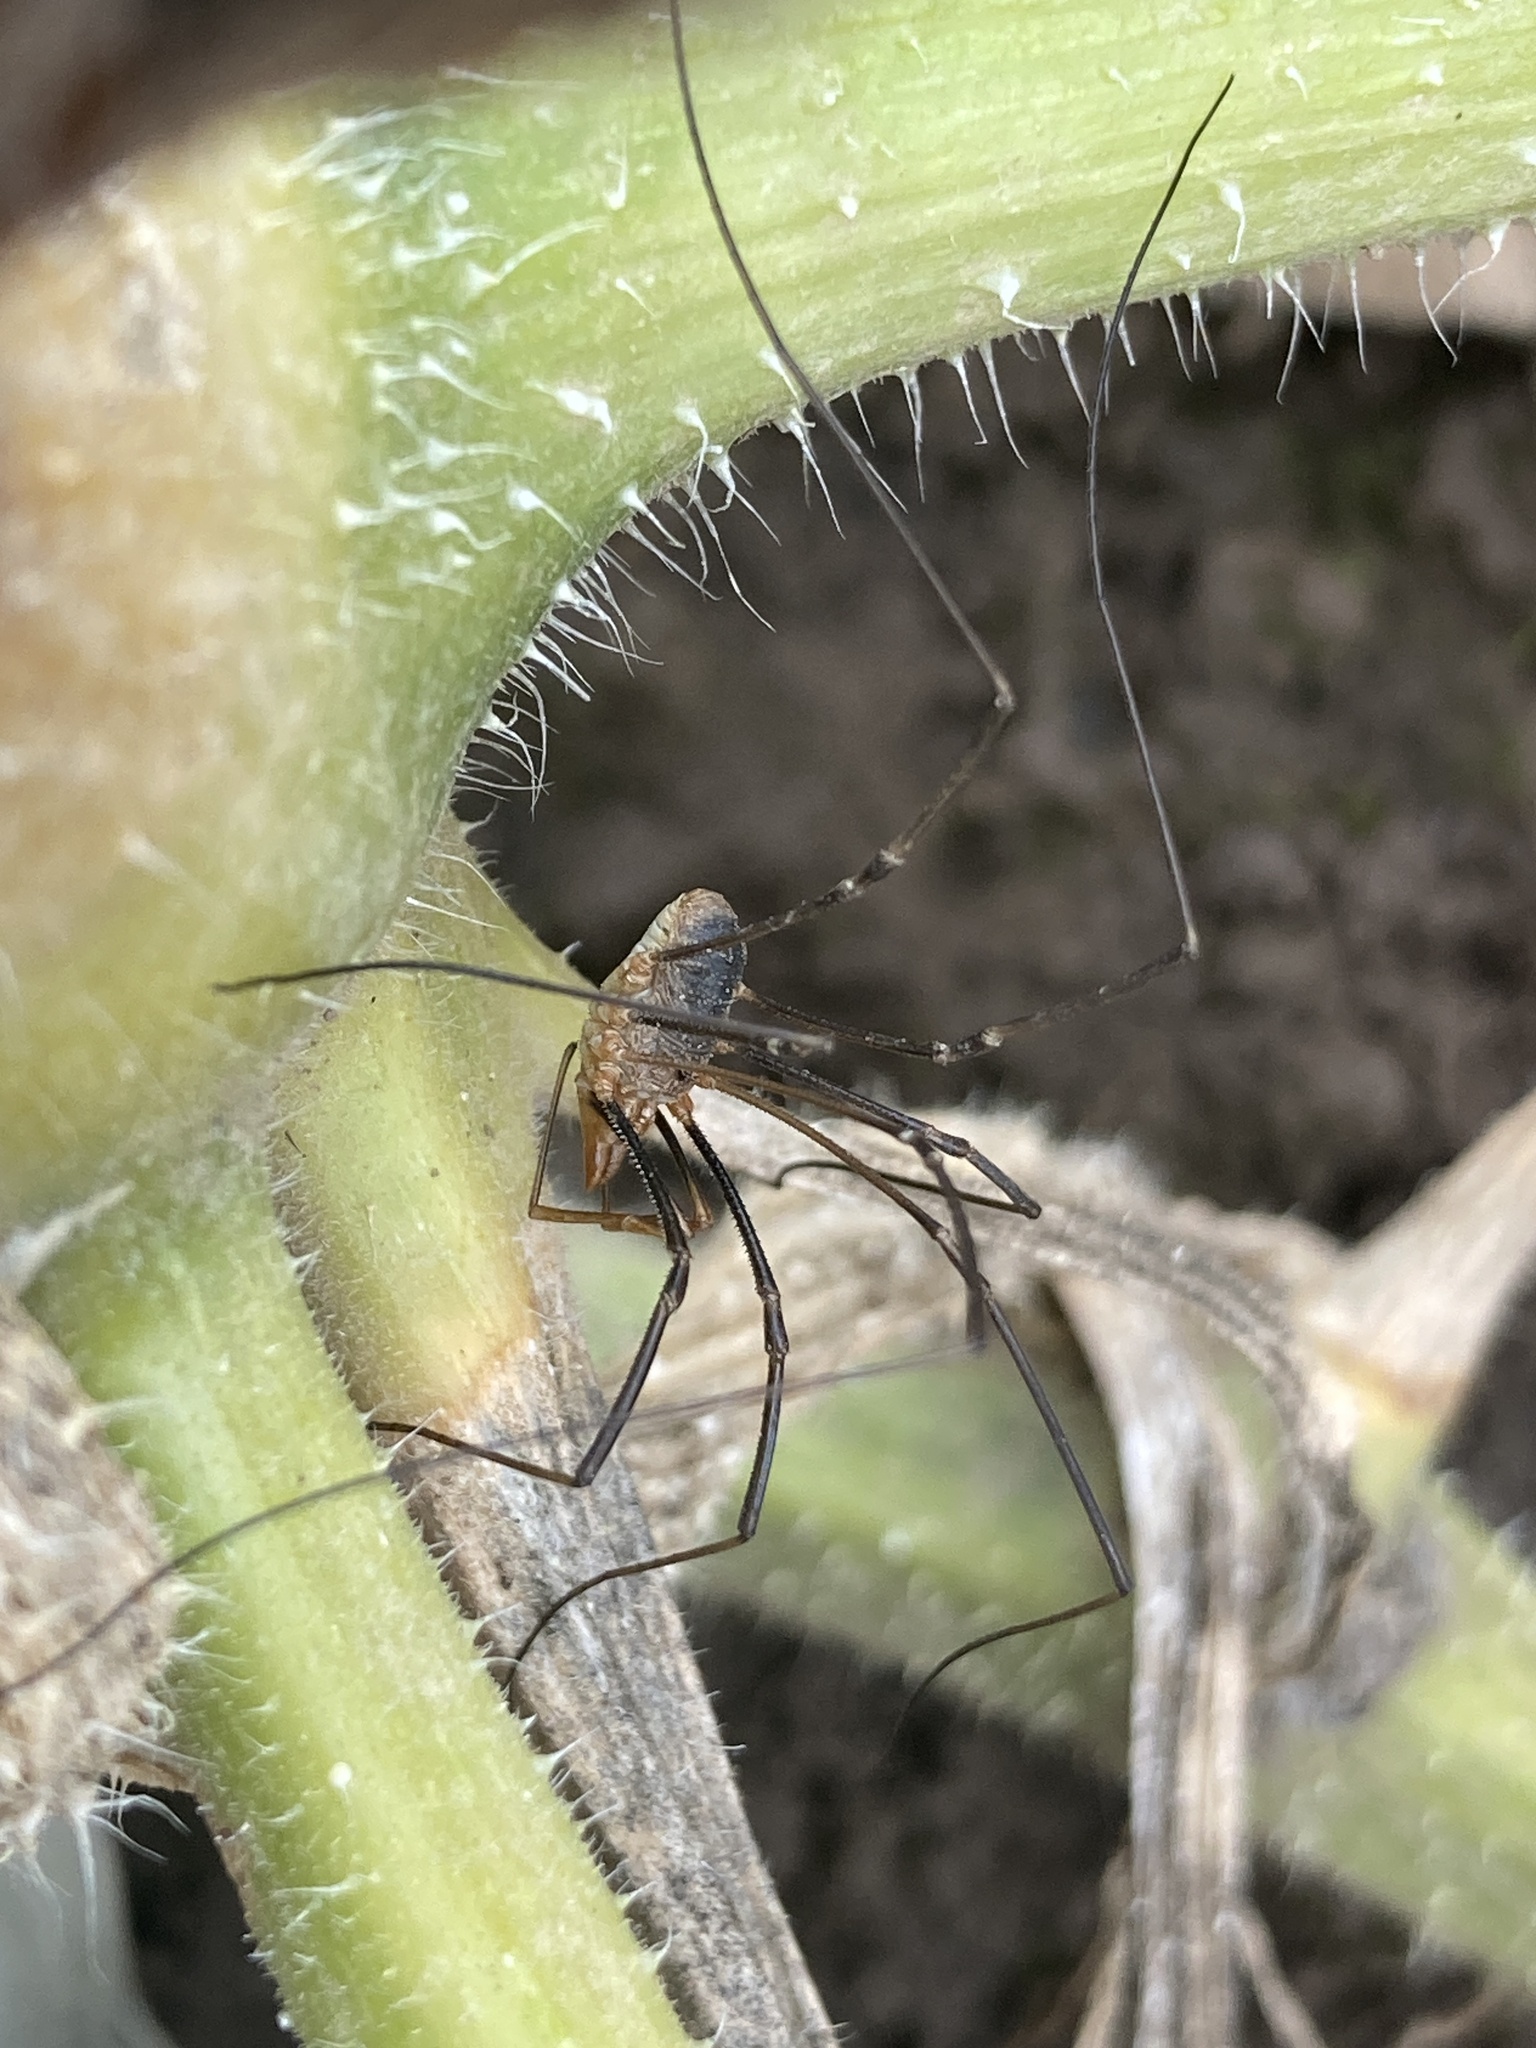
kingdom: Animalia
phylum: Arthropoda
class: Arachnida
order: Opiliones
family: Phalangiidae
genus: Phalangium
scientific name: Phalangium opilio
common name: Daddy longleg
